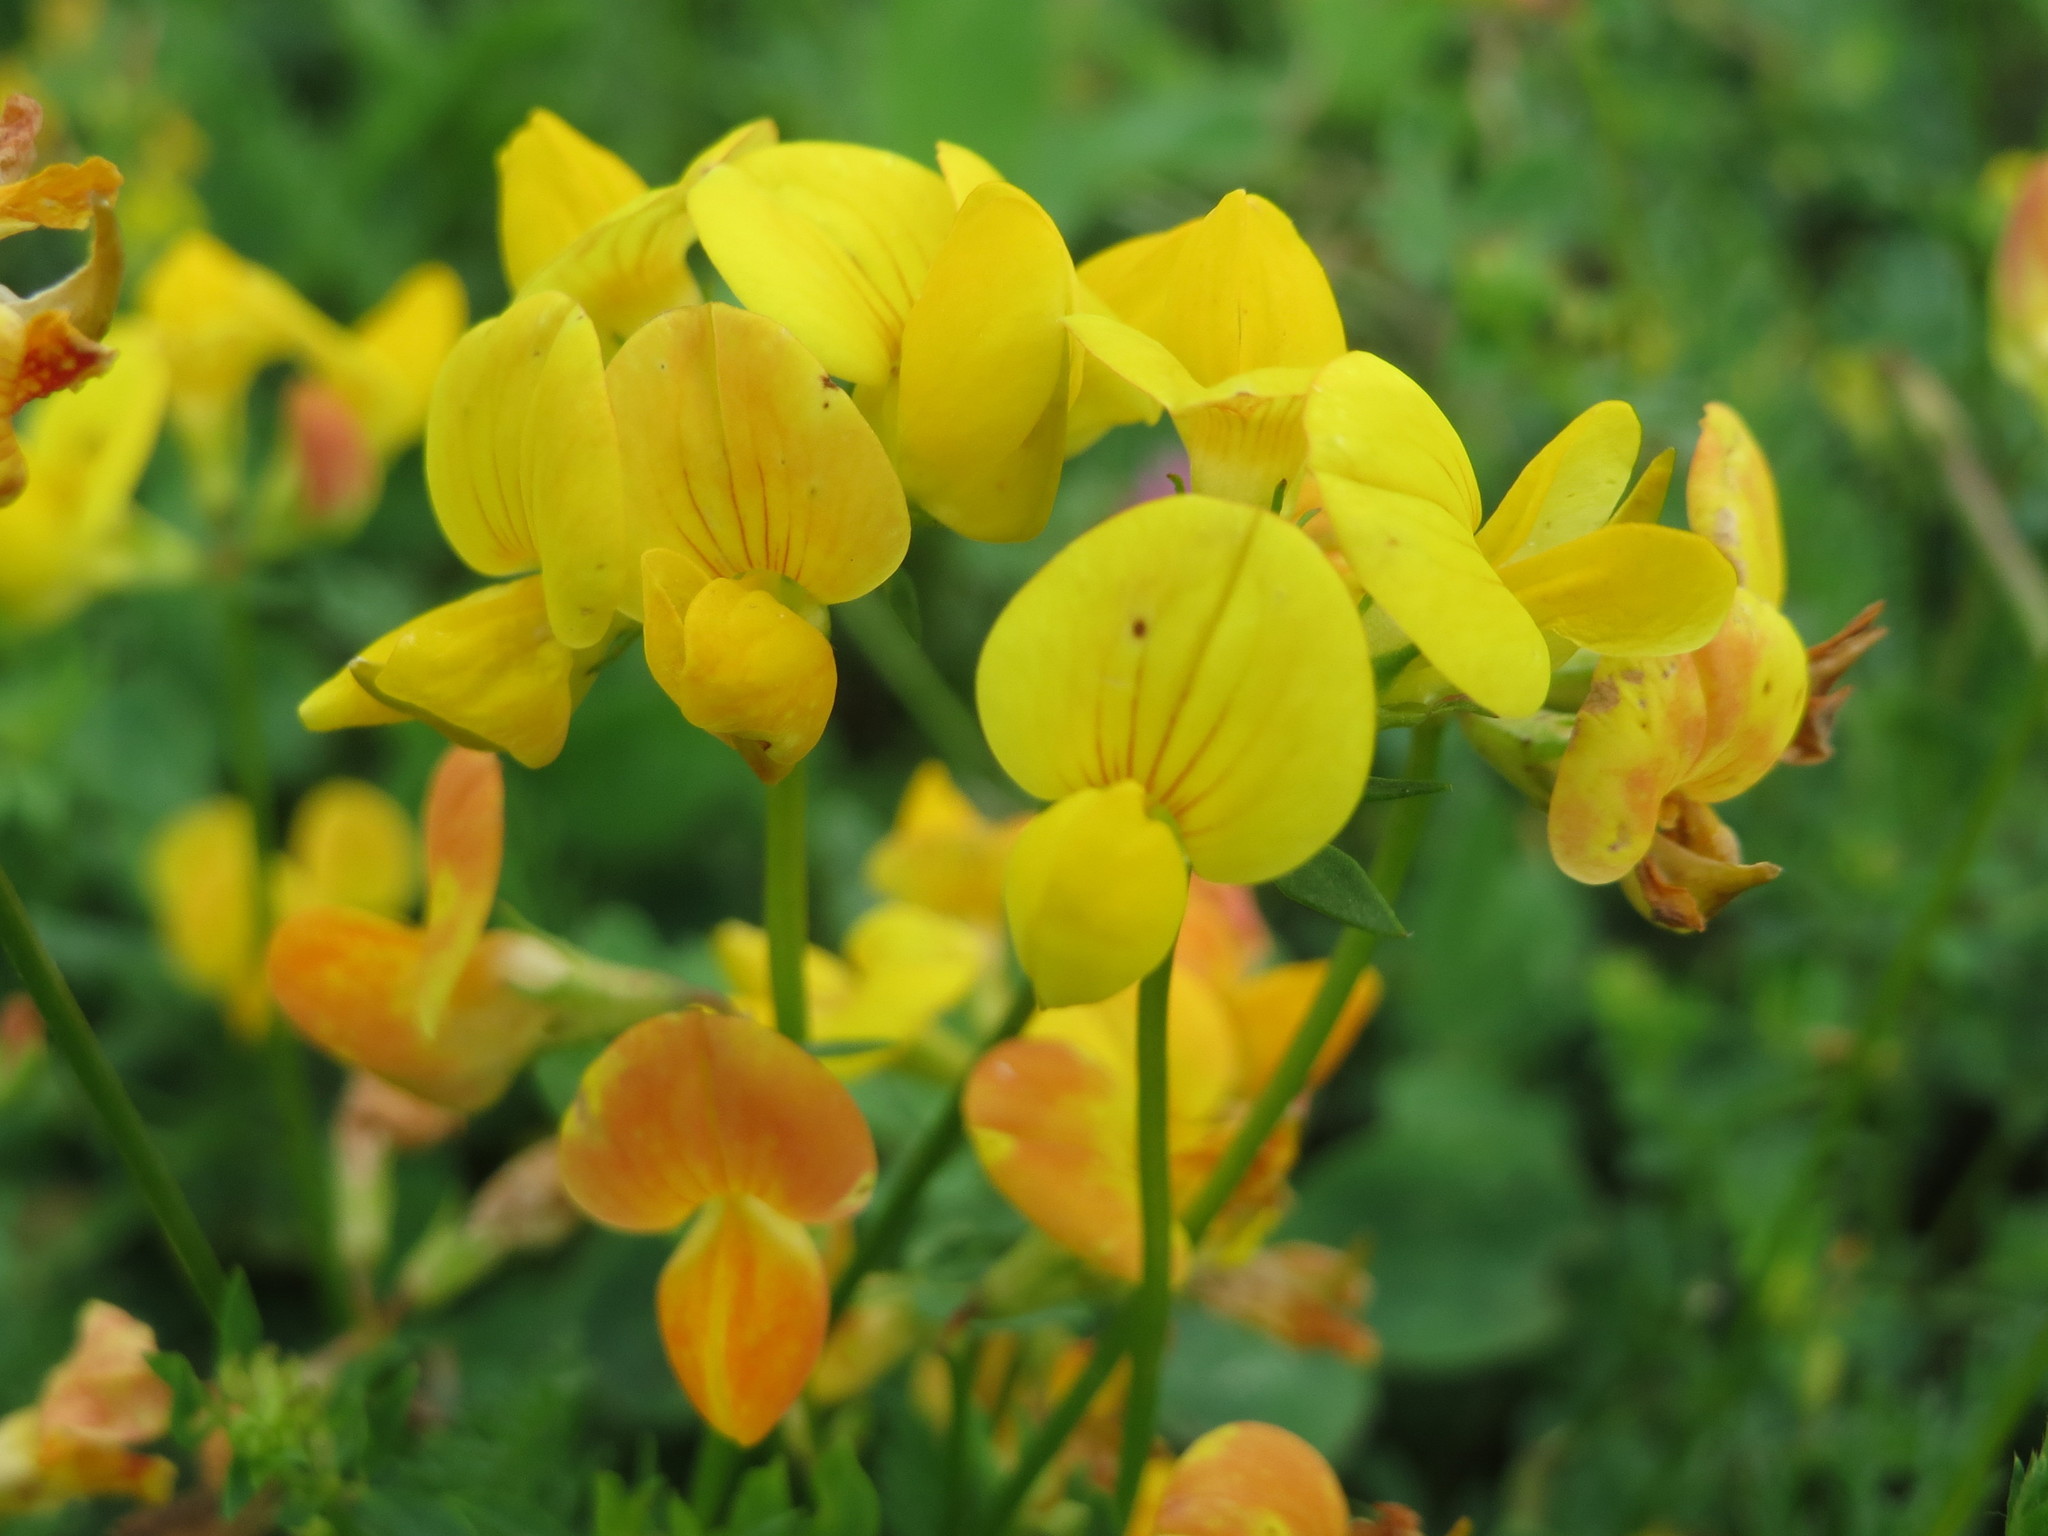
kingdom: Plantae
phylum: Tracheophyta
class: Magnoliopsida
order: Fabales
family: Fabaceae
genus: Lotus
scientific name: Lotus corniculatus
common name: Common bird's-foot-trefoil
